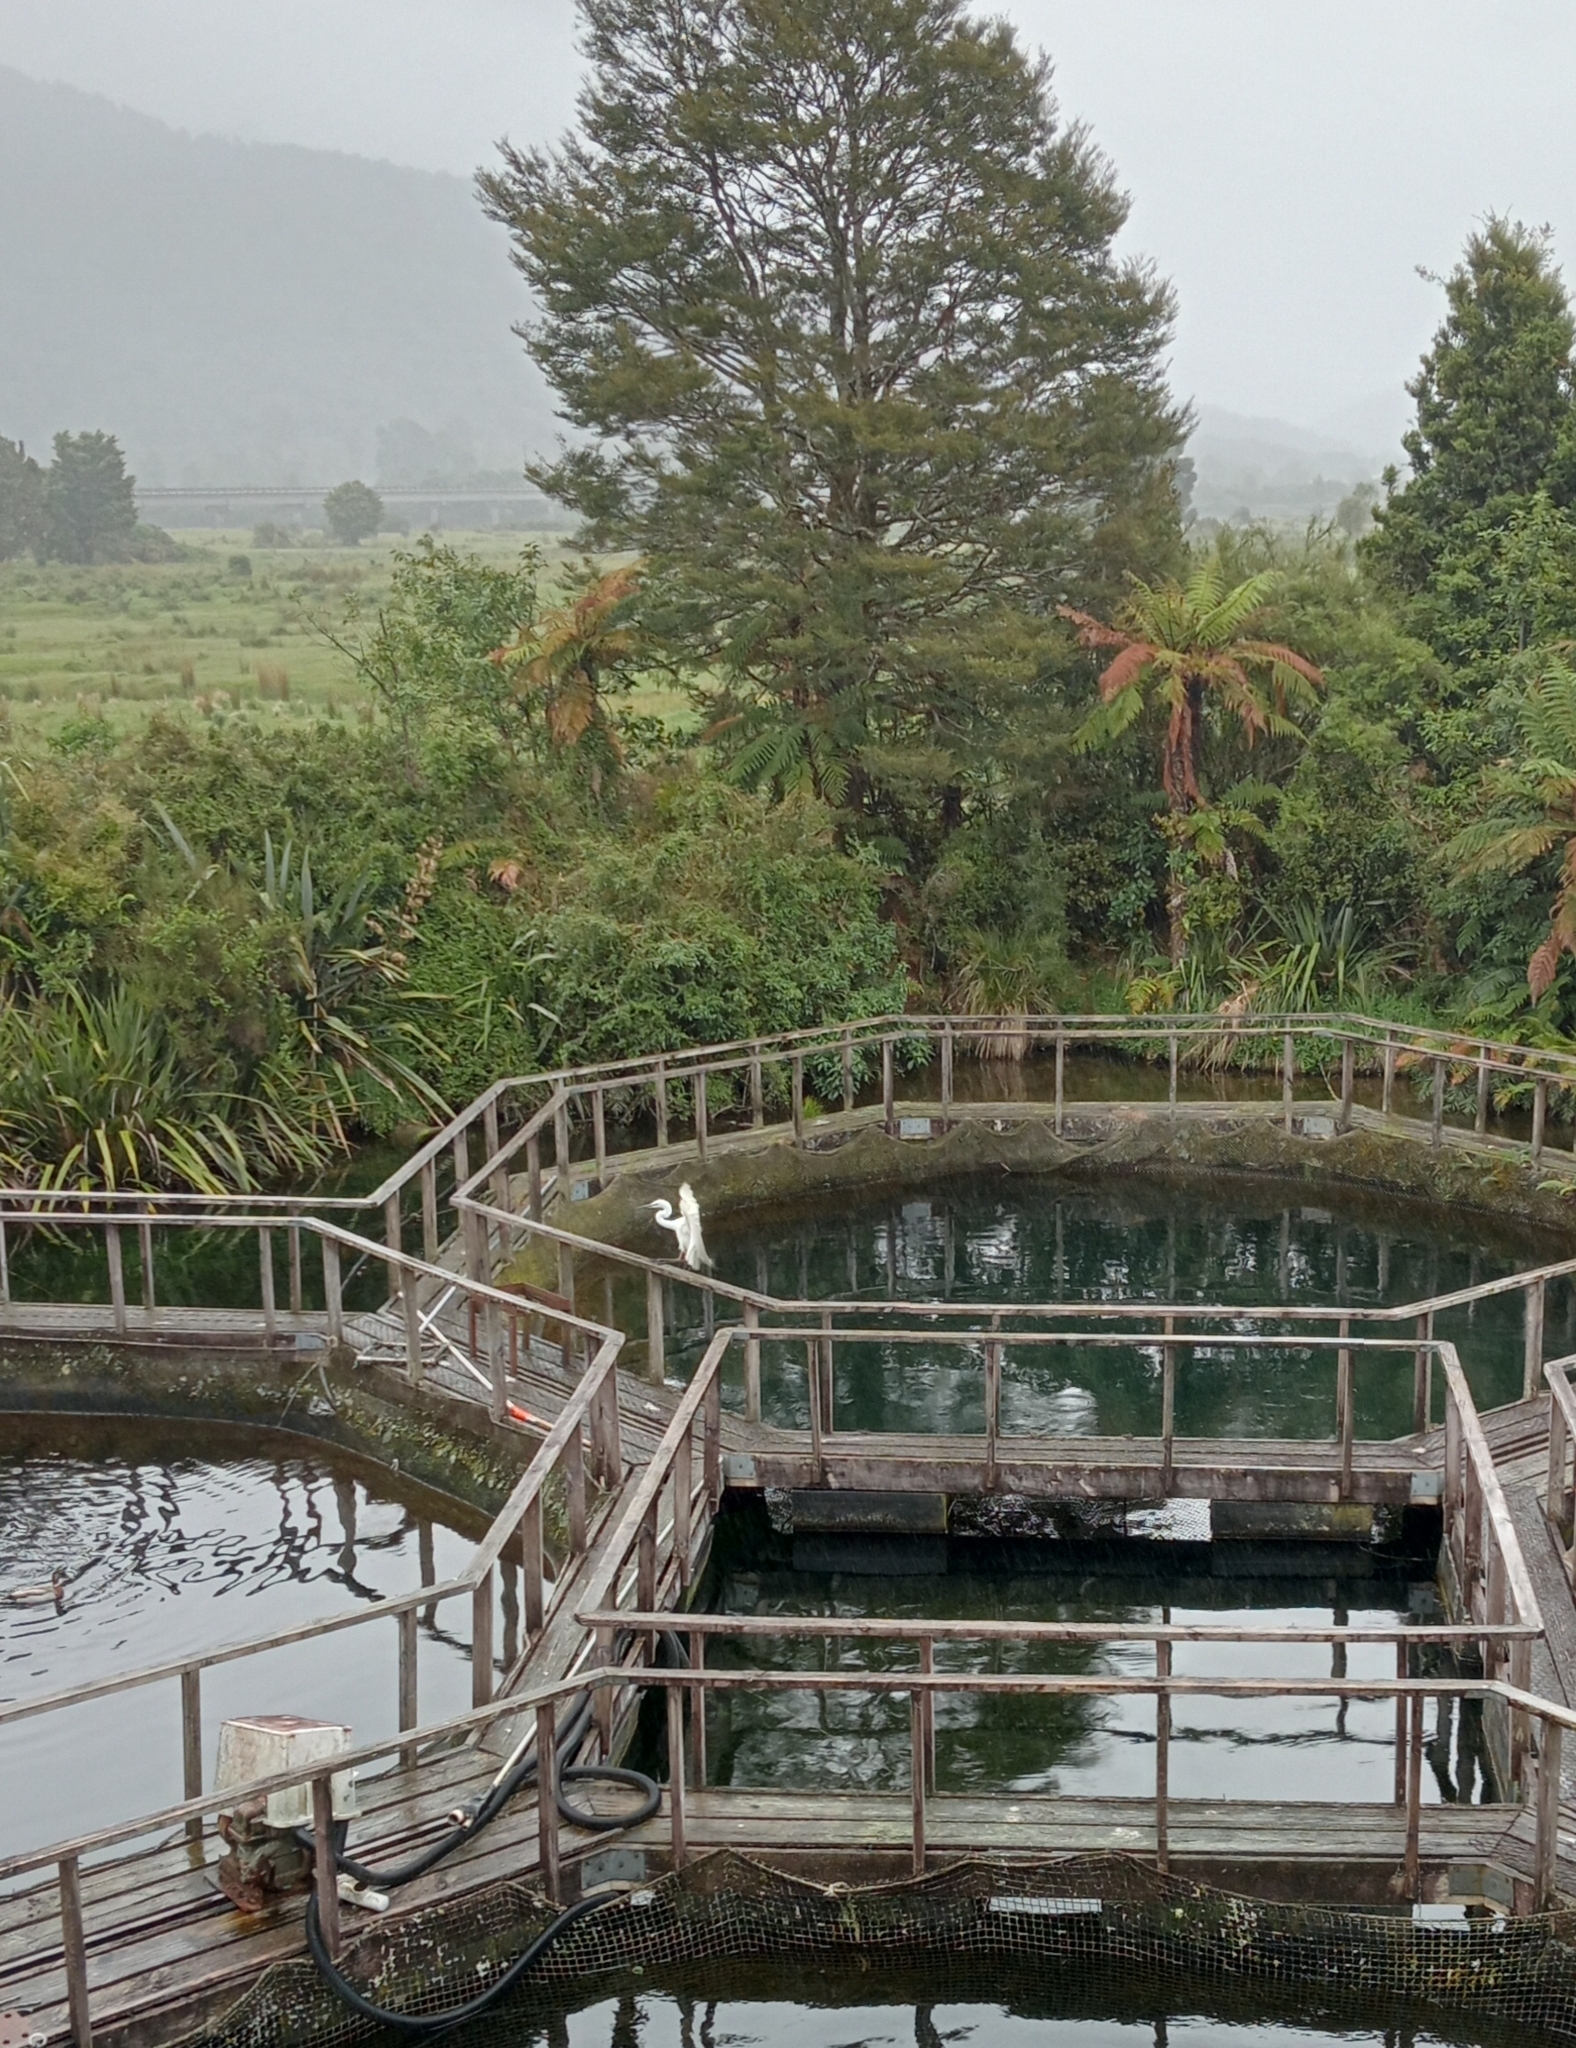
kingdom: Animalia
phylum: Chordata
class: Aves
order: Pelecaniformes
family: Ardeidae
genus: Ardea
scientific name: Ardea modesta
